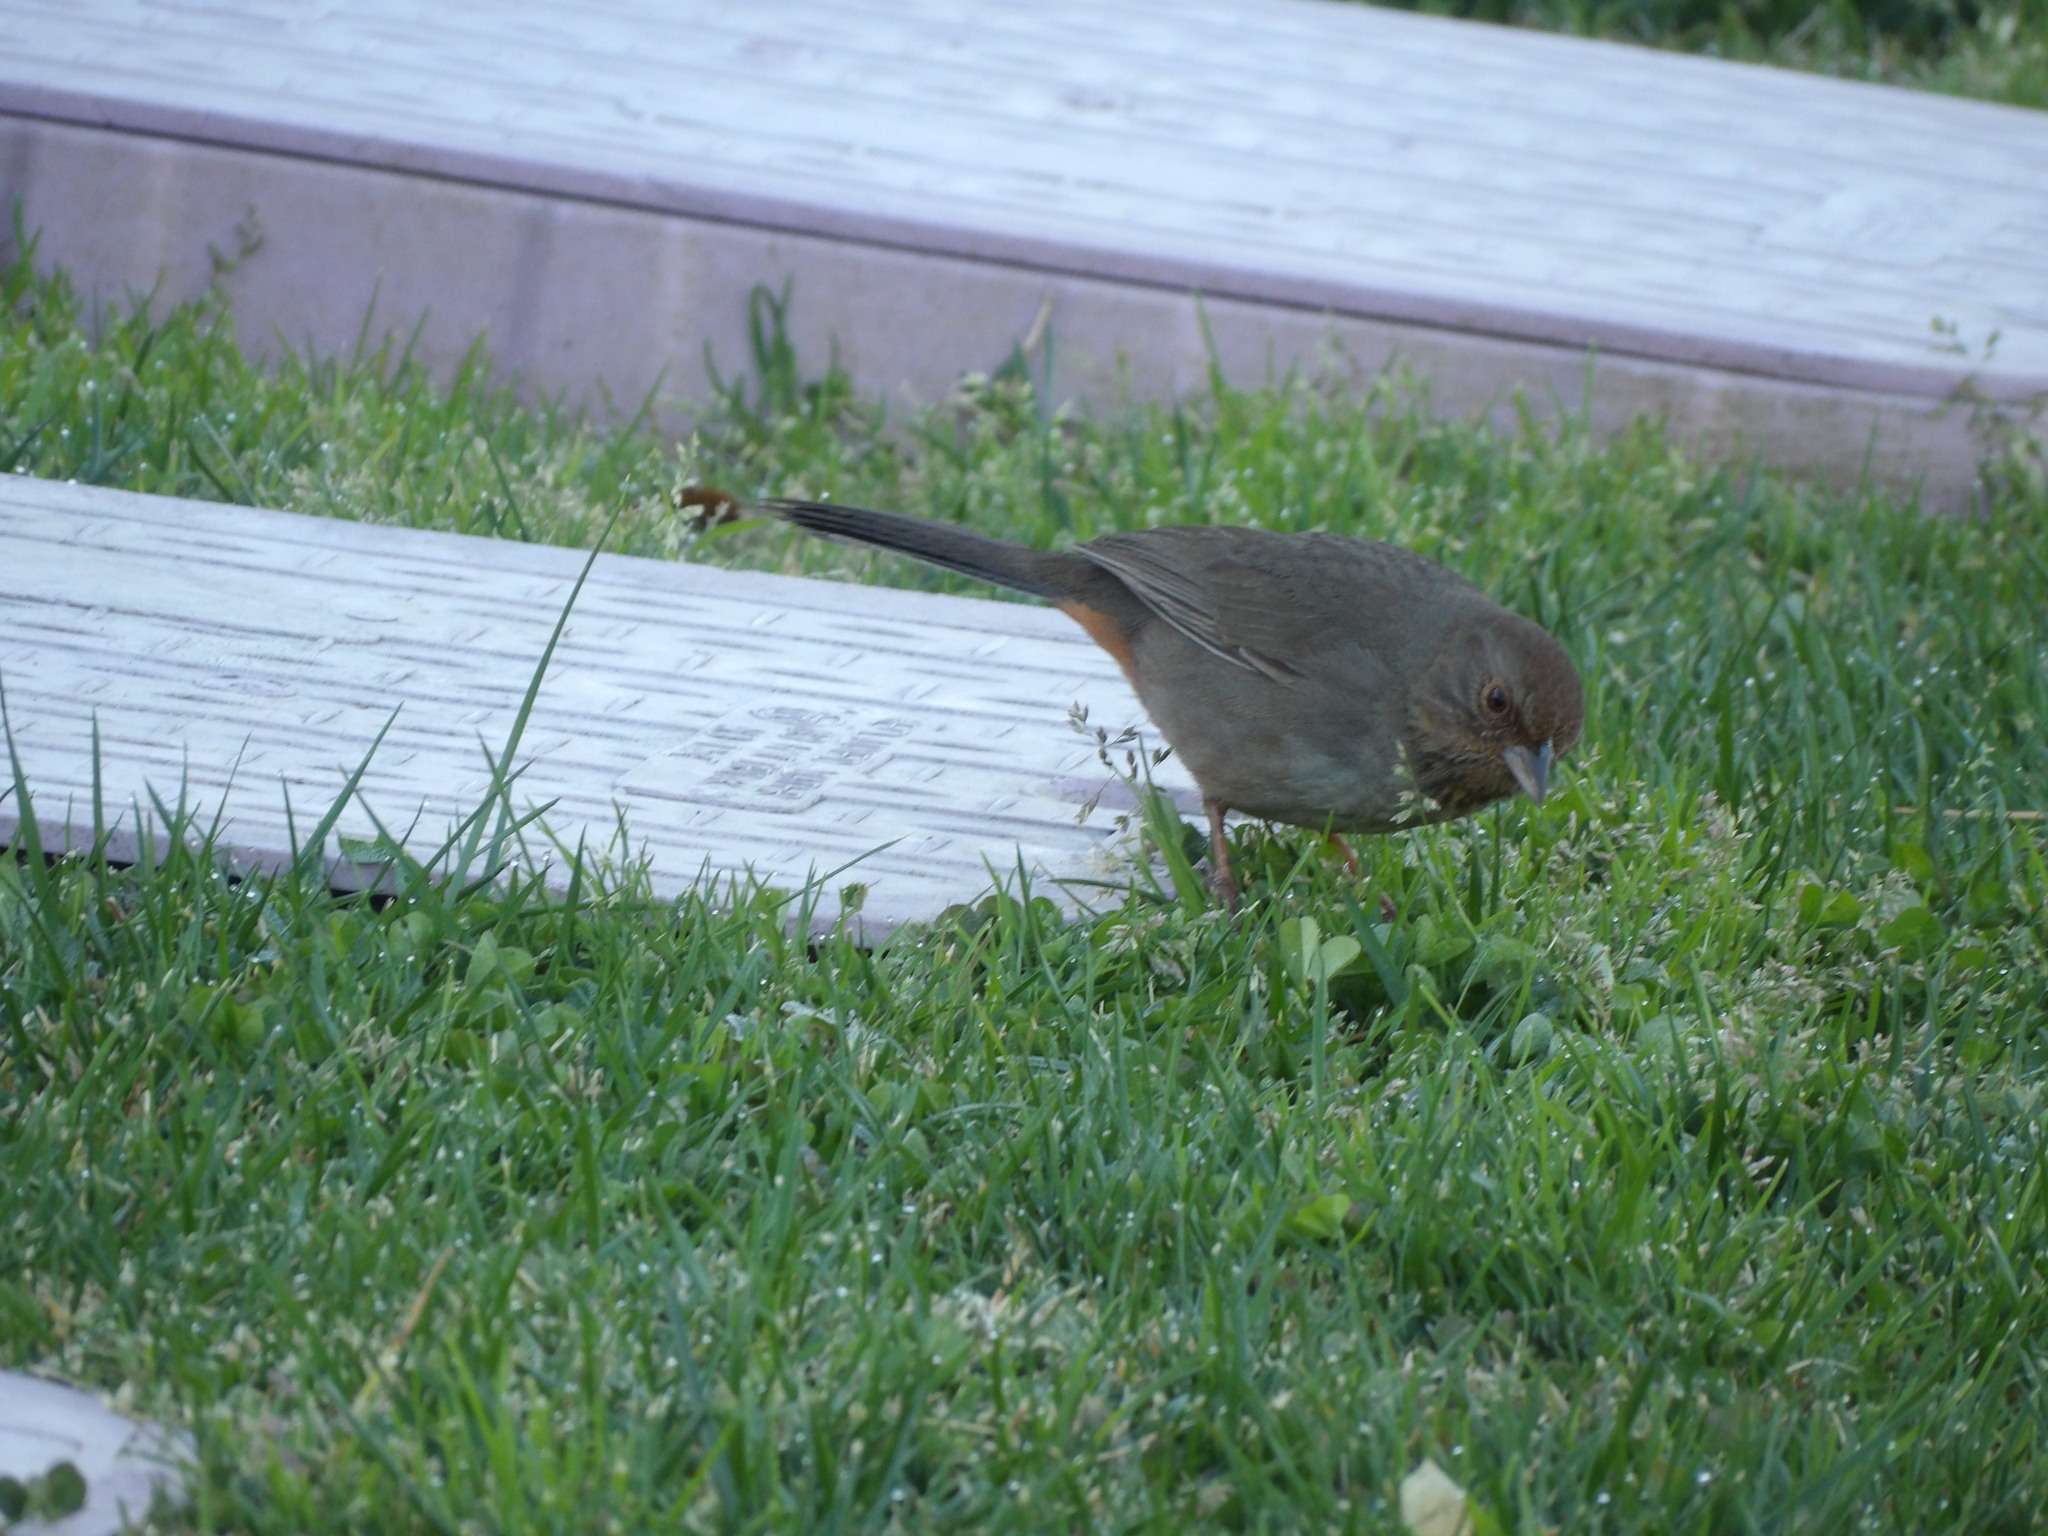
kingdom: Animalia
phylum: Chordata
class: Aves
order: Passeriformes
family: Passerellidae
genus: Melozone
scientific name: Melozone crissalis
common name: California towhee
